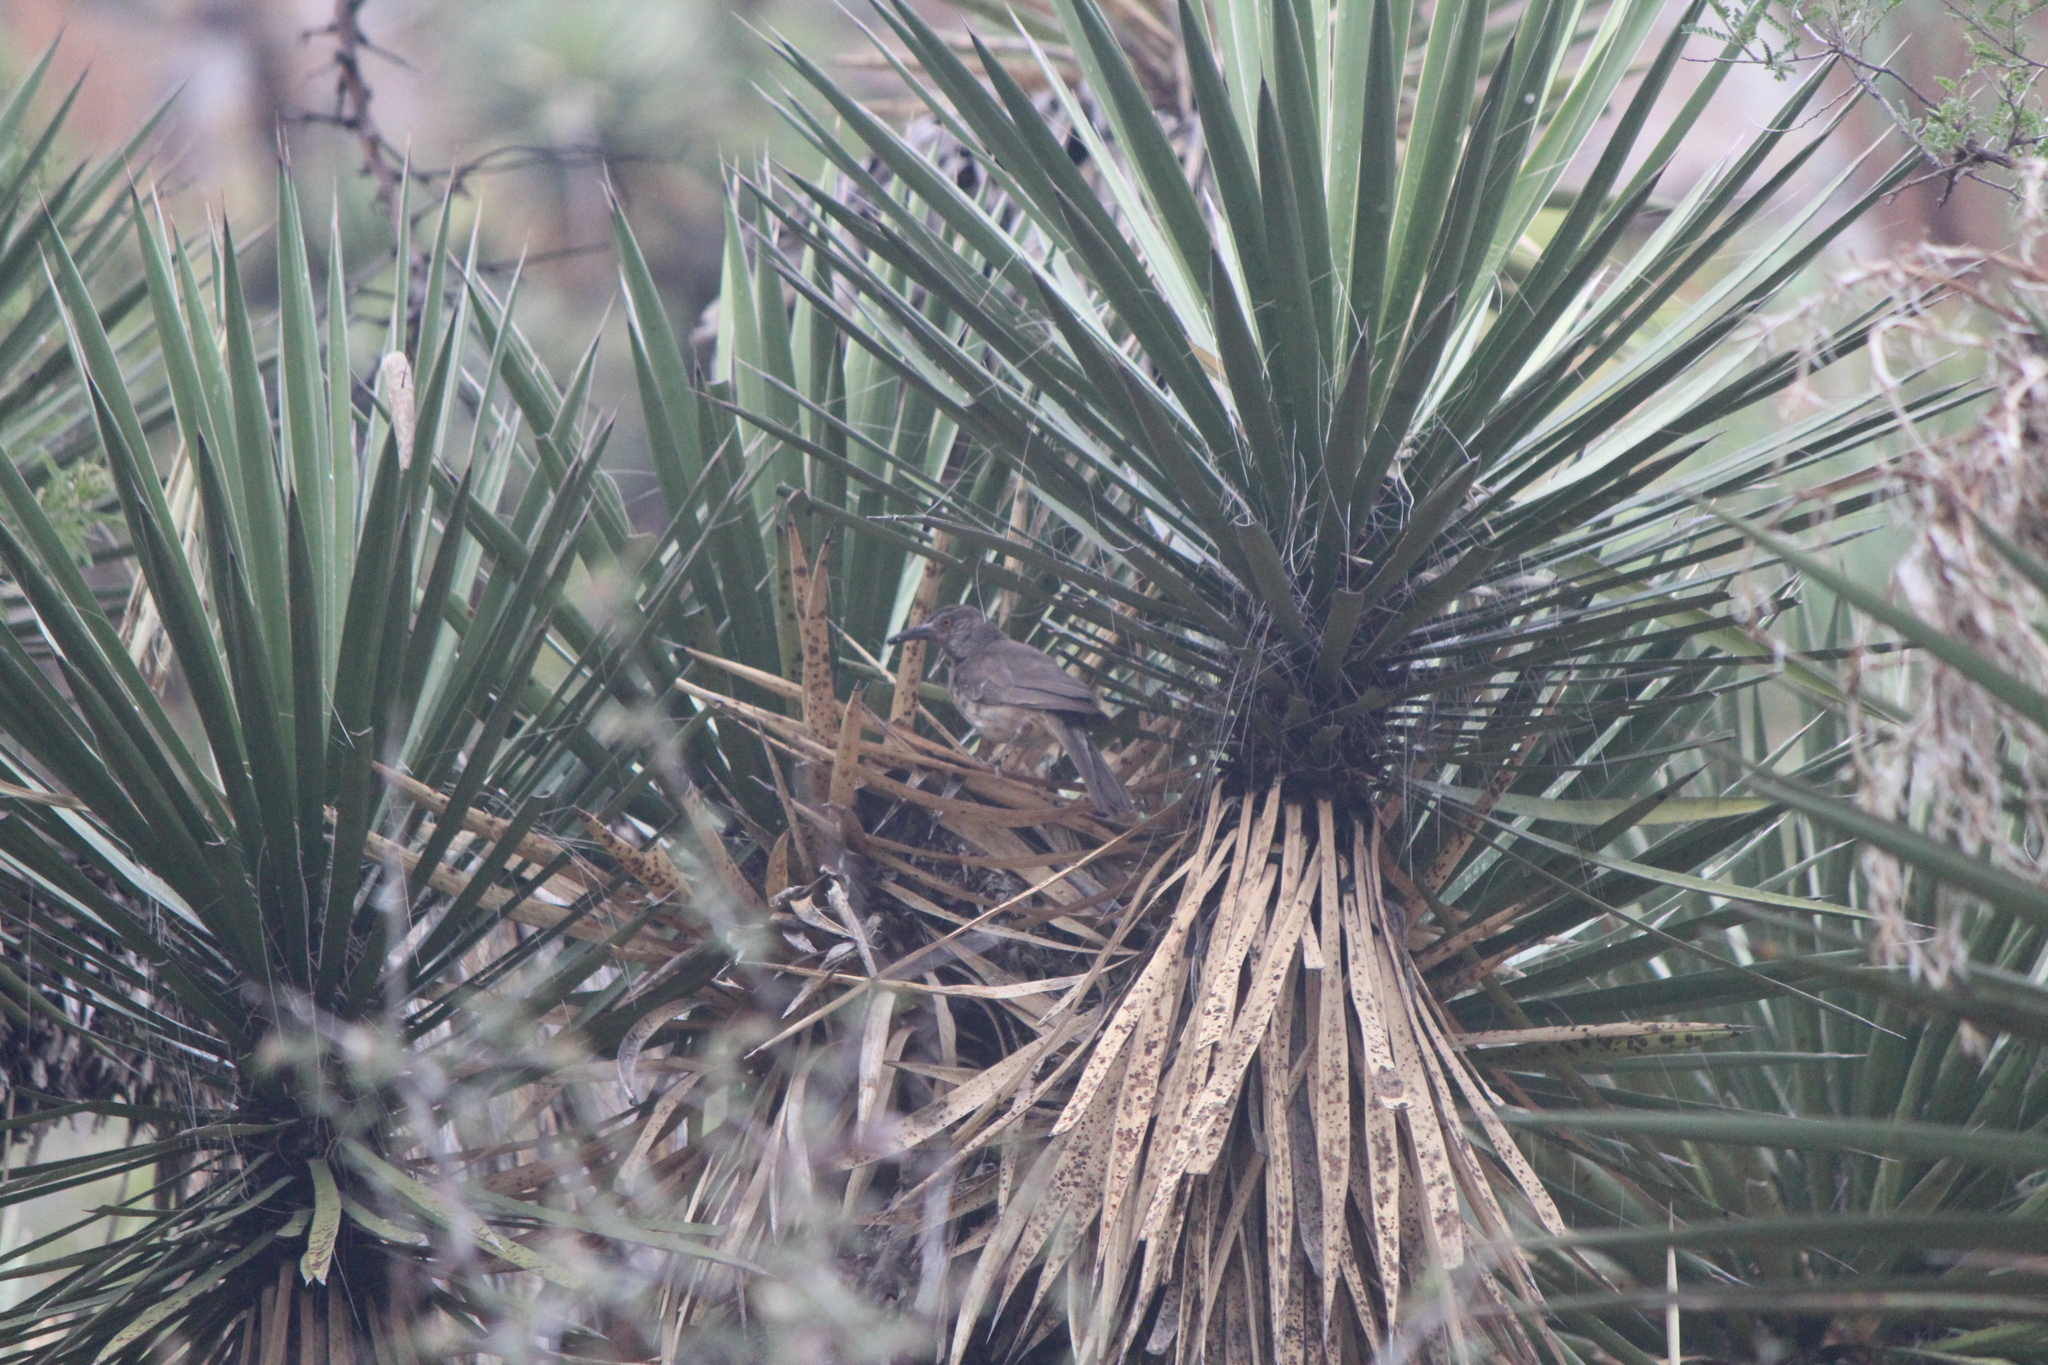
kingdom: Animalia
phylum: Chordata
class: Aves
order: Passeriformes
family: Mimidae
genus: Toxostoma
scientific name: Toxostoma curvirostre
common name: Curve-billed thrasher
